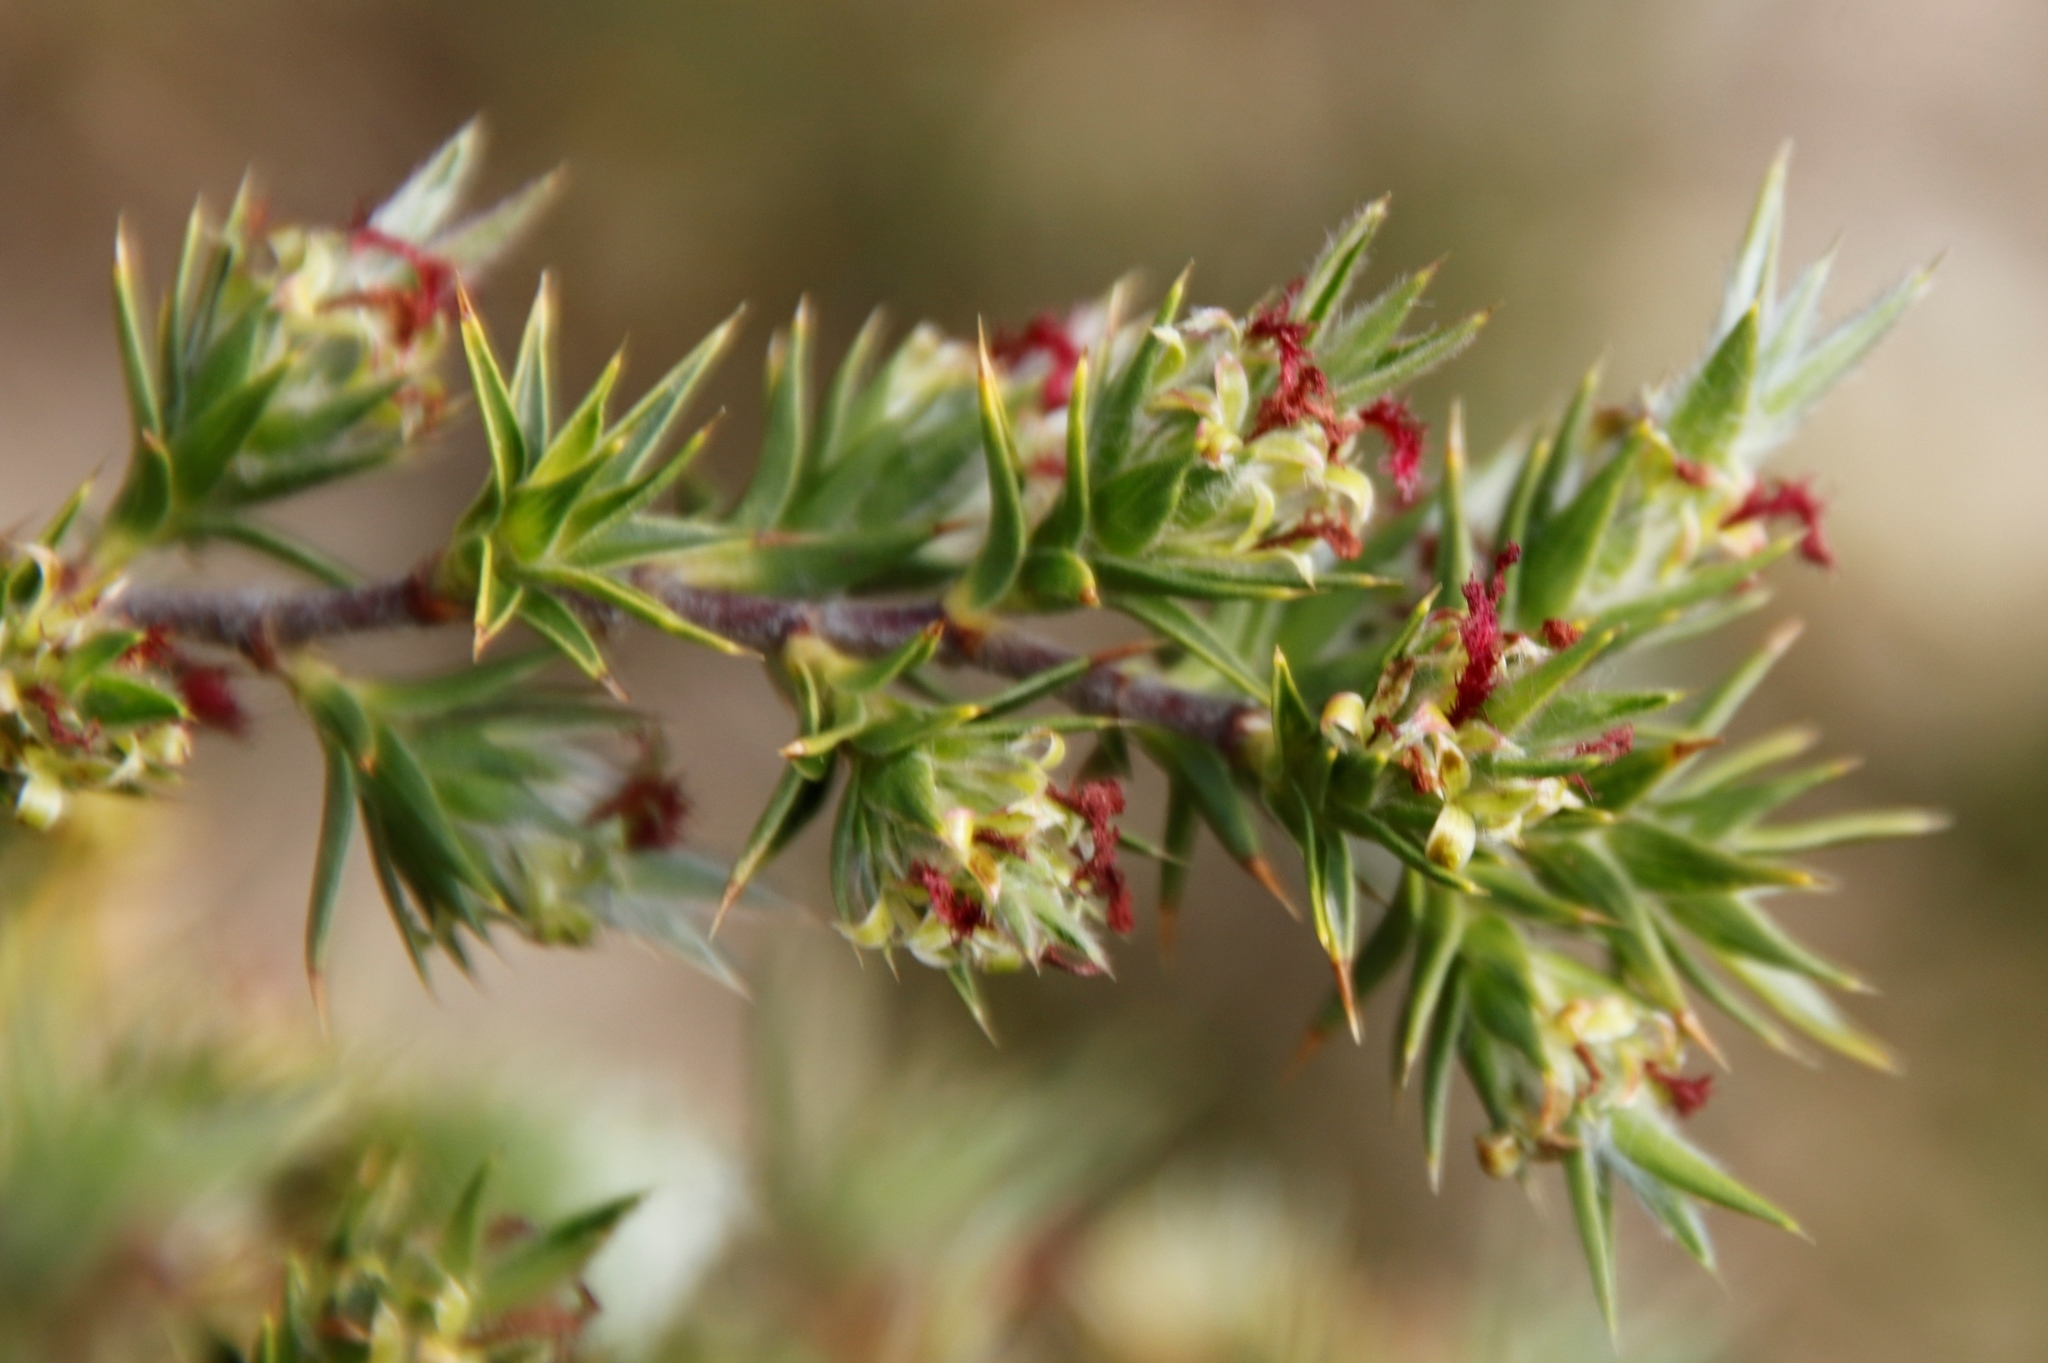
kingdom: Plantae
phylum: Tracheophyta
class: Magnoliopsida
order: Rosales
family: Rosaceae
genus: Cliffortia
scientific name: Cliffortia ruscifolia
